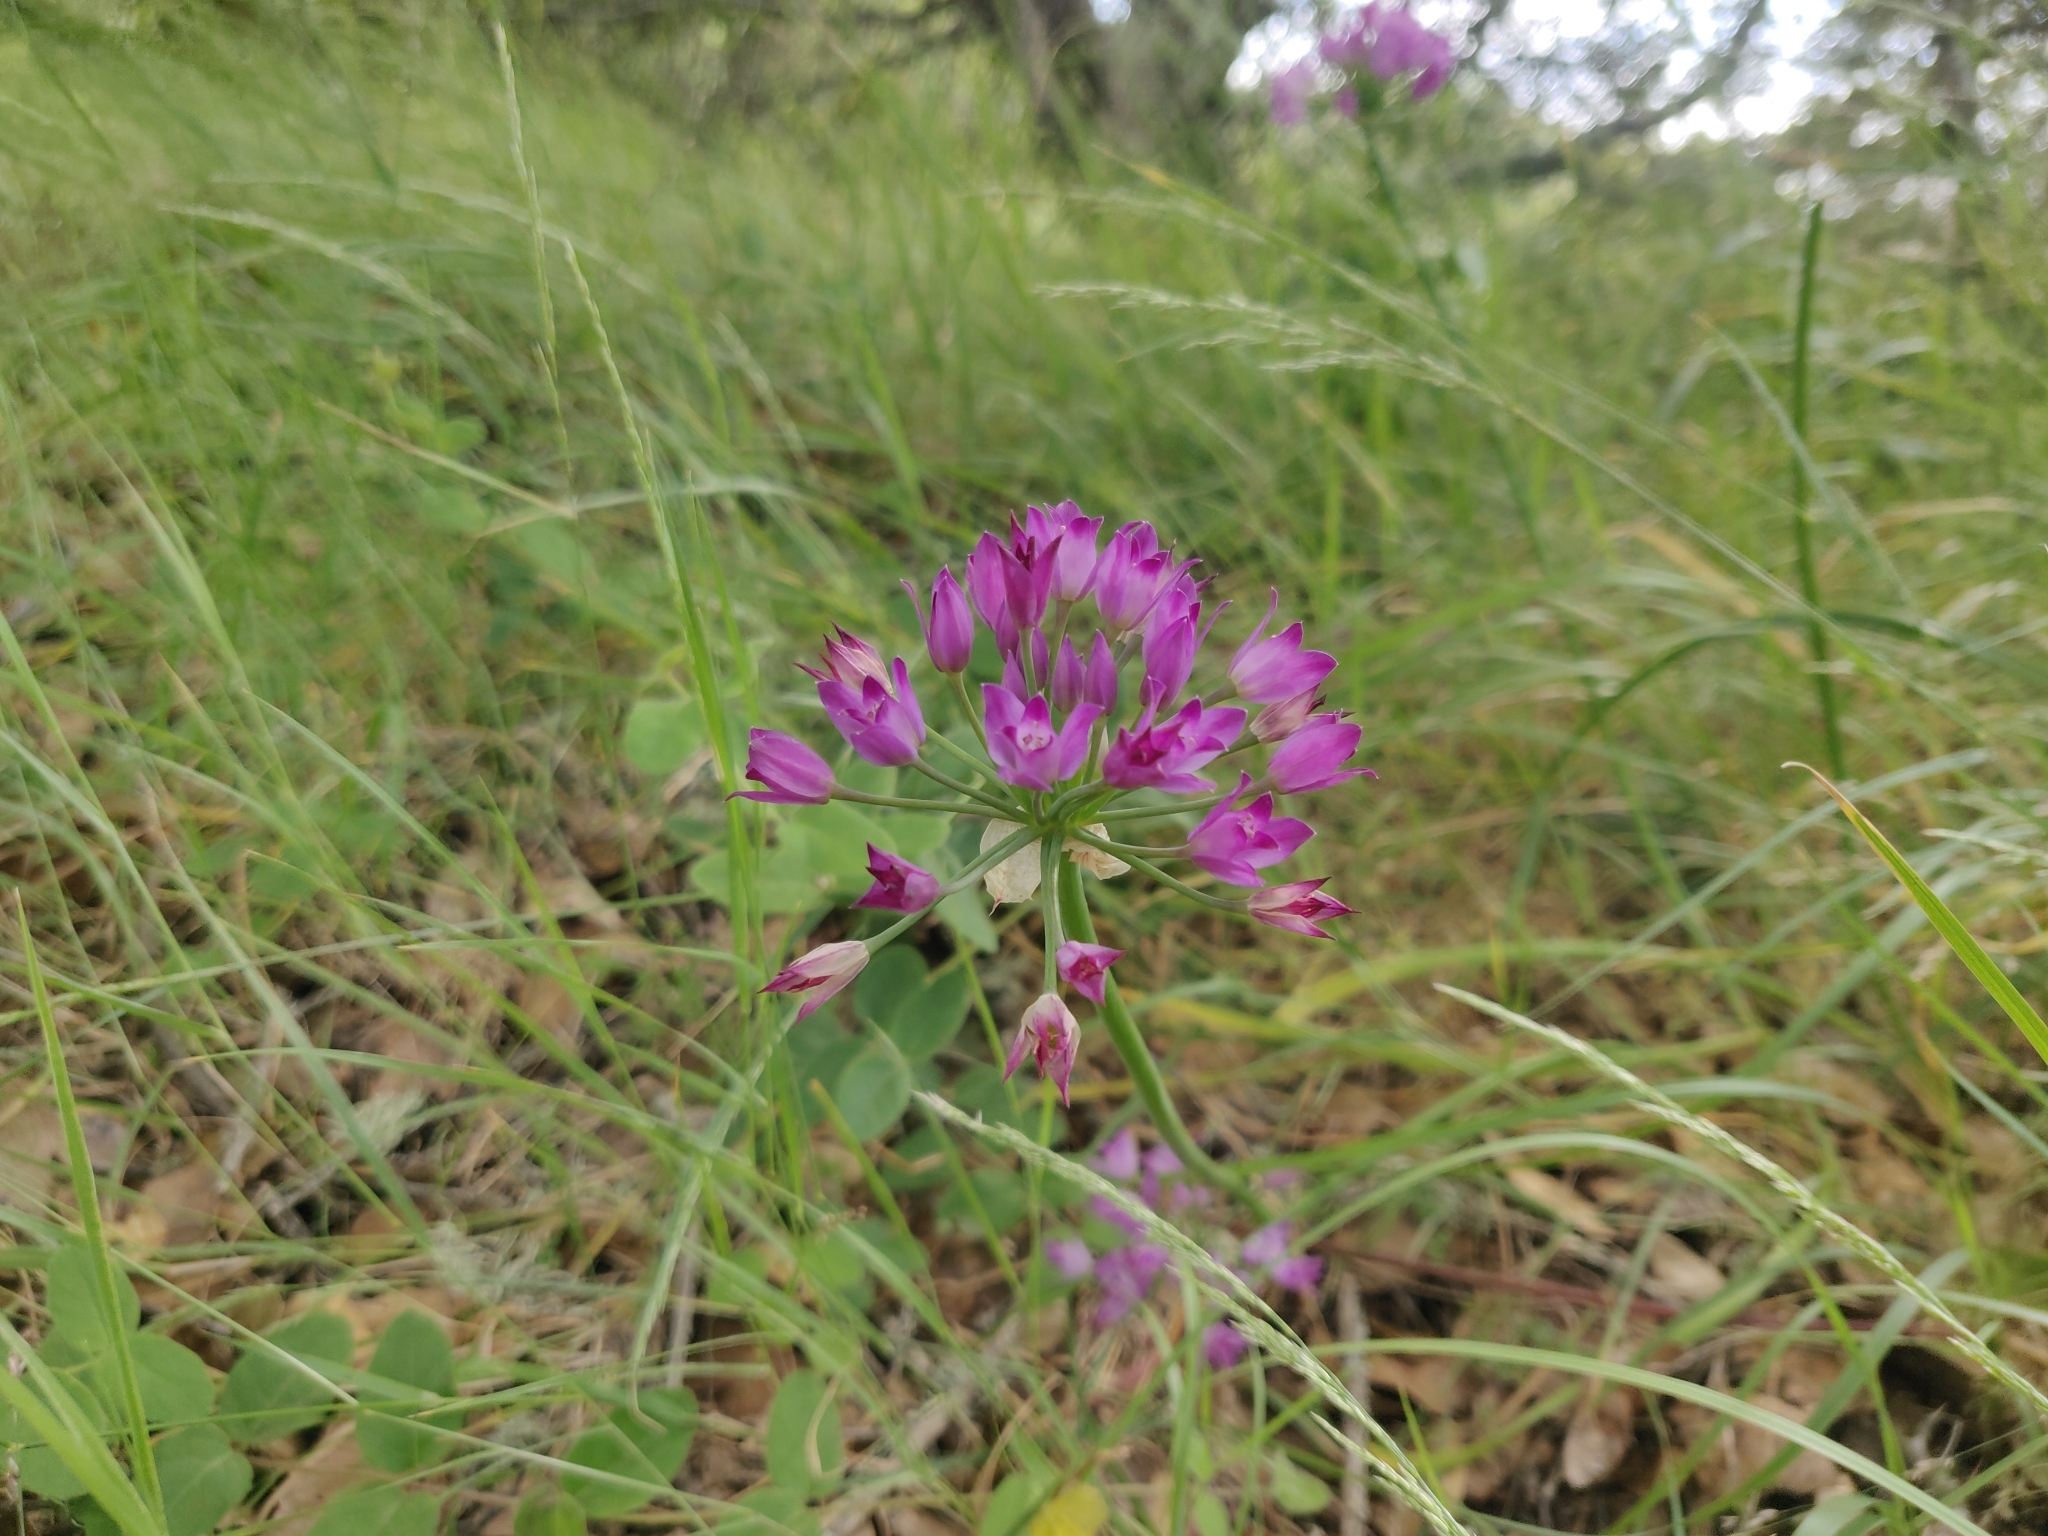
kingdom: Plantae
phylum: Tracheophyta
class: Liliopsida
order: Asparagales
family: Amaryllidaceae
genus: Allium
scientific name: Allium peninsulare
